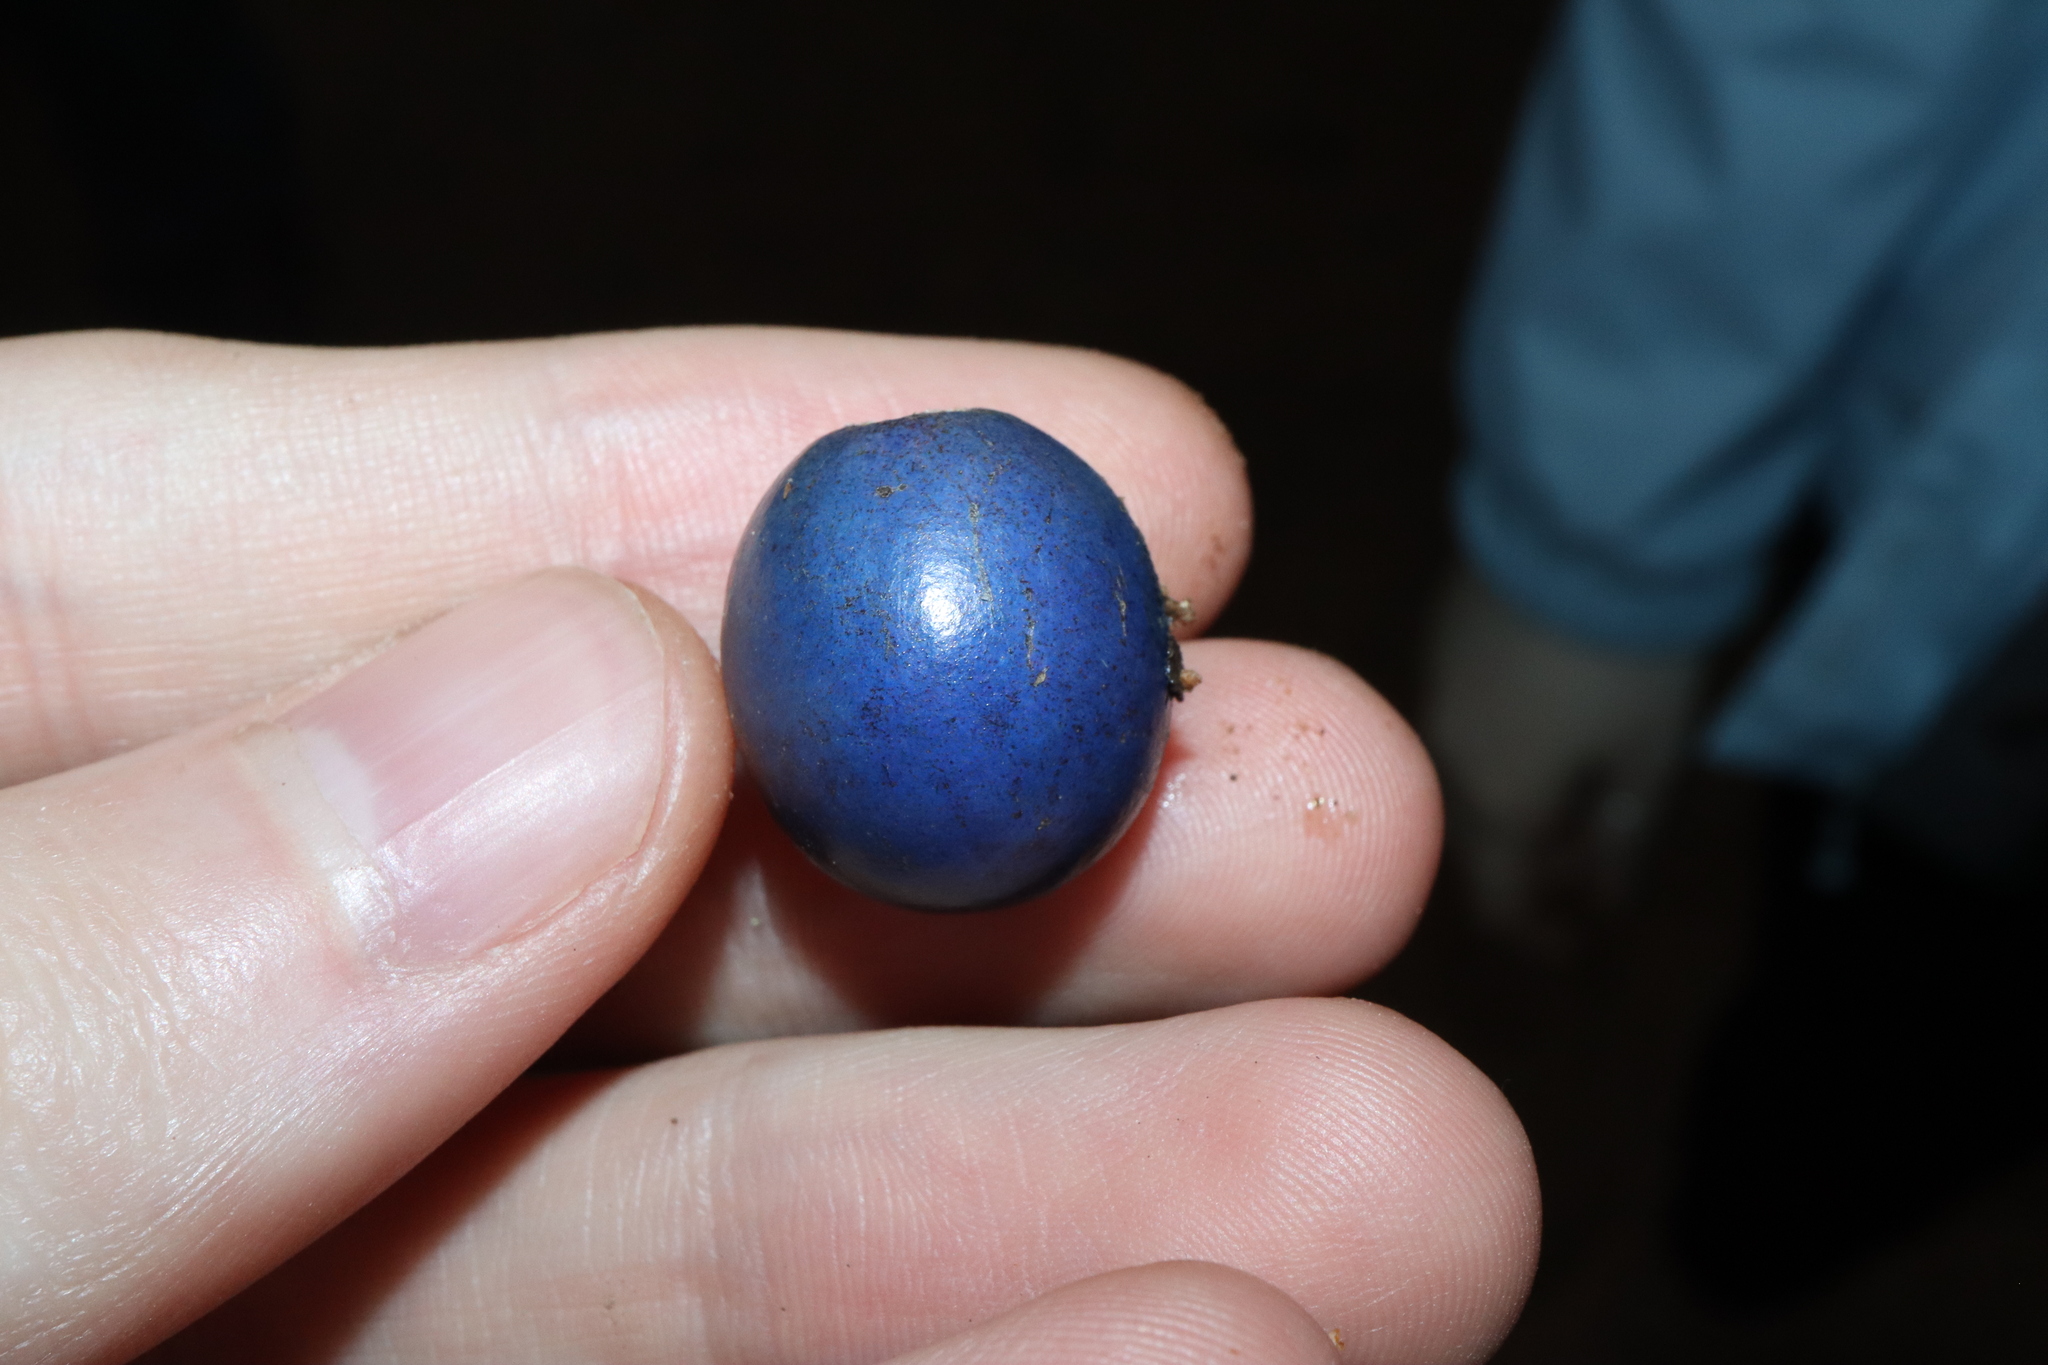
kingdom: Plantae
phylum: Tracheophyta
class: Magnoliopsida
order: Oxalidales
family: Elaeocarpaceae
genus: Elaeocarpus
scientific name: Elaeocarpus angustifolius
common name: Blue marble tree
